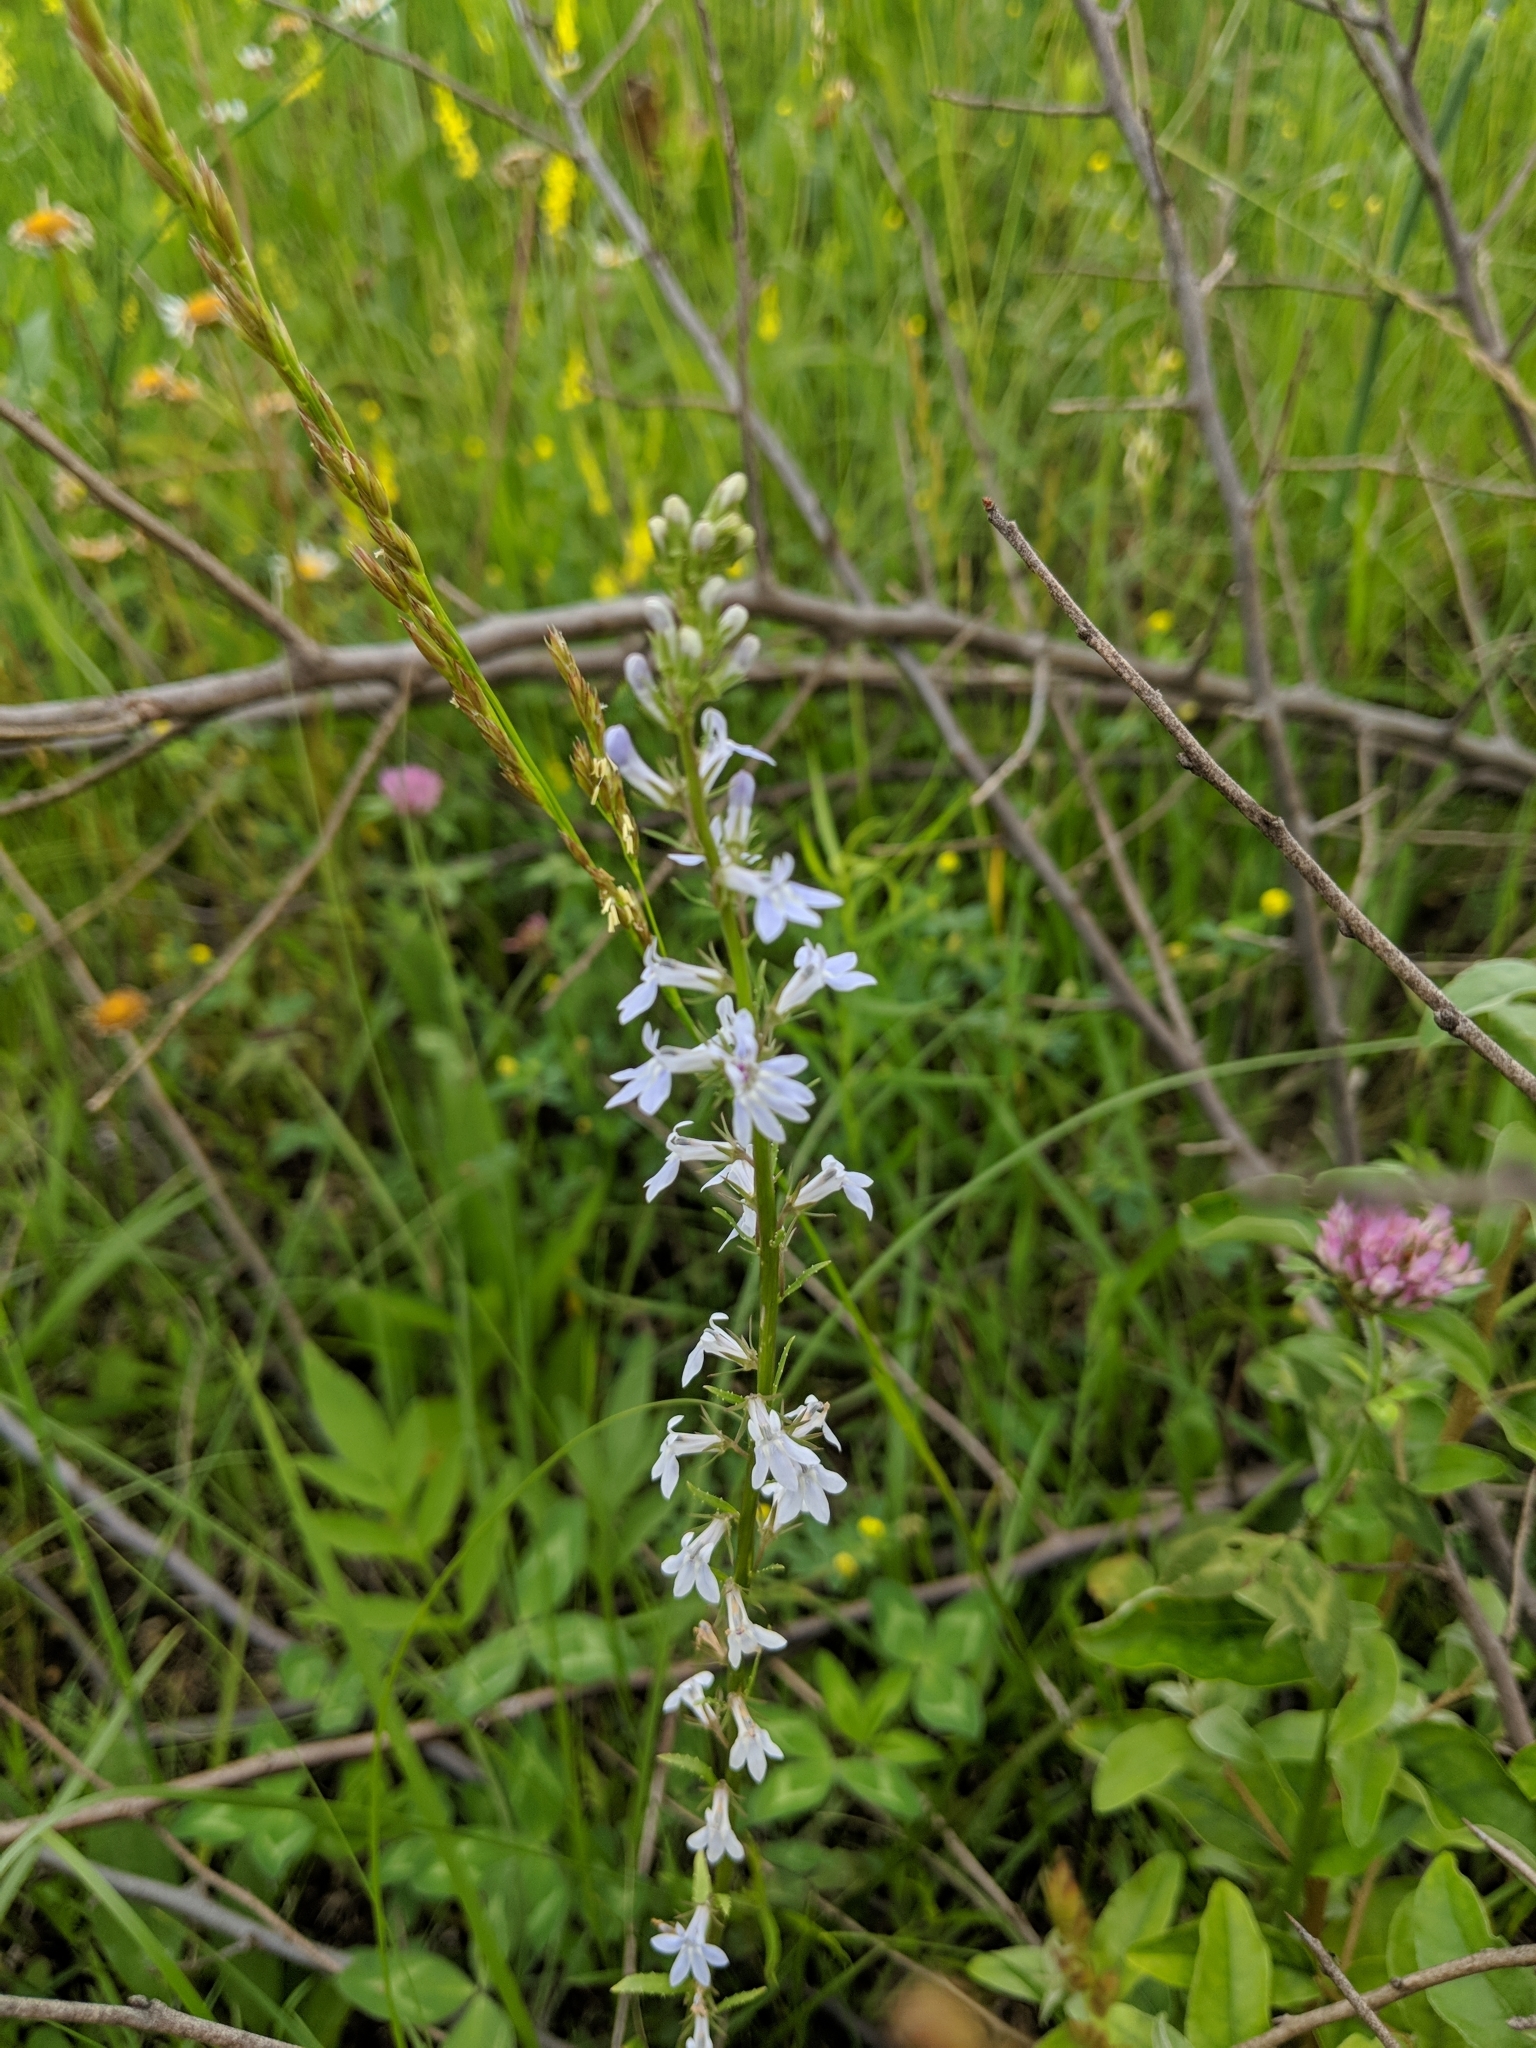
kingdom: Plantae
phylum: Tracheophyta
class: Magnoliopsida
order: Asterales
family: Campanulaceae
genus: Lobelia
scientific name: Lobelia spicata
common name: Pale-spike lobelia
